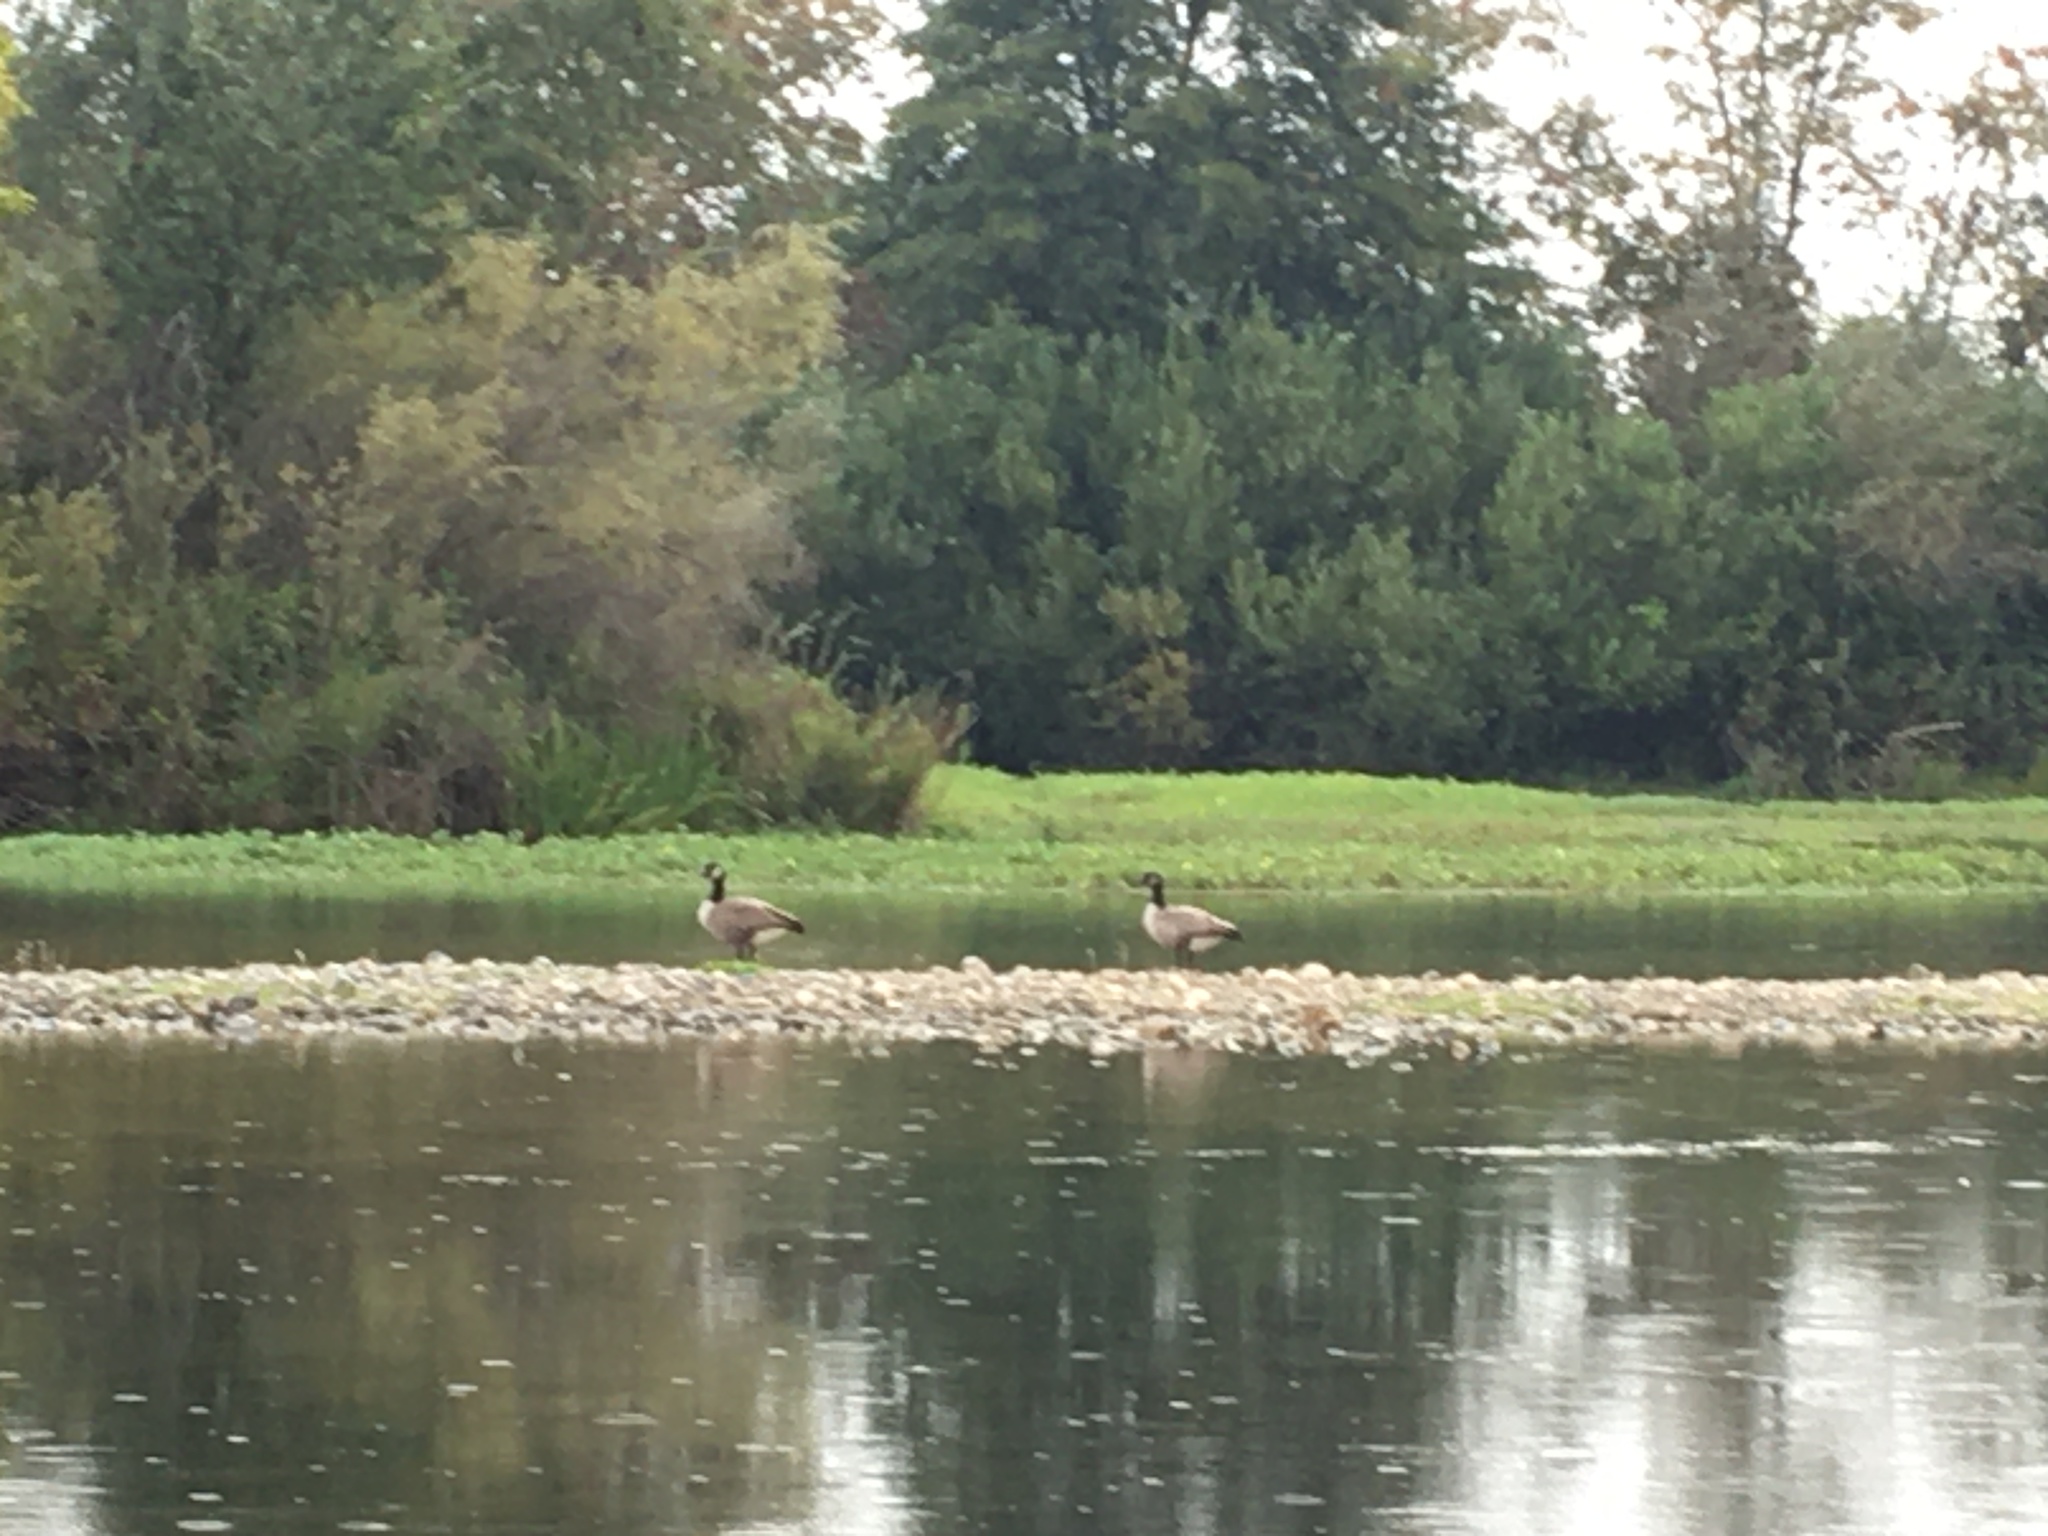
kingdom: Animalia
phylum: Chordata
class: Aves
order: Anseriformes
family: Anatidae
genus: Branta
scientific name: Branta canadensis
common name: Canada goose
